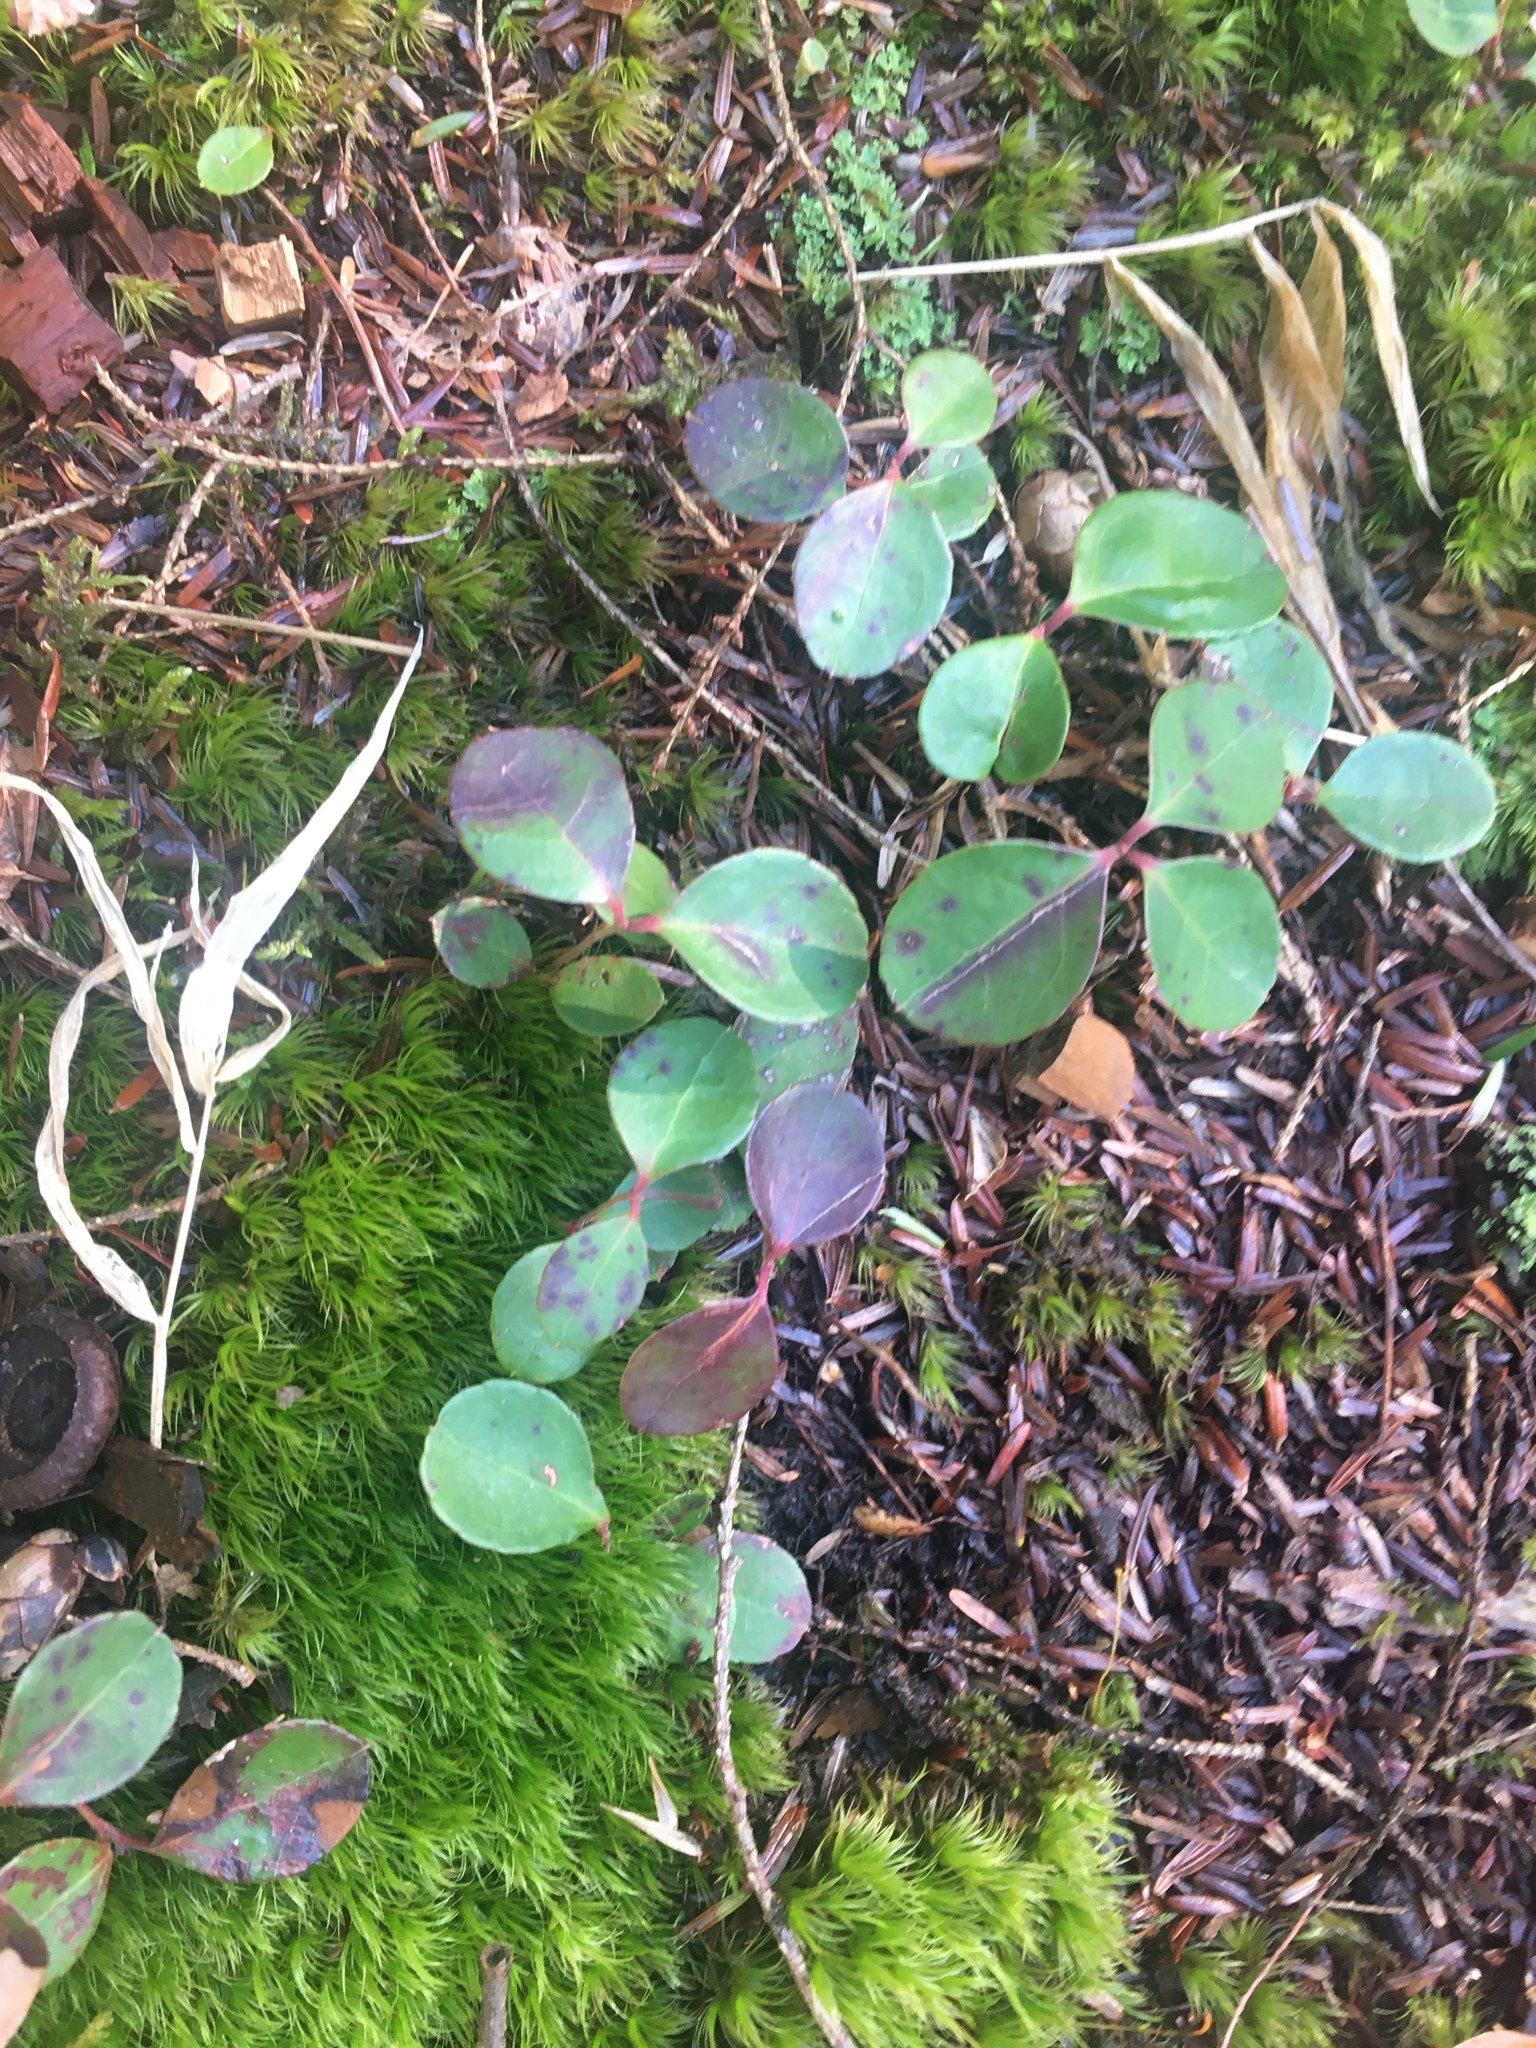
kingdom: Plantae
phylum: Tracheophyta
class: Magnoliopsida
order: Ericales
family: Ericaceae
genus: Gaultheria
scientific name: Gaultheria procumbens
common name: Checkerberry
